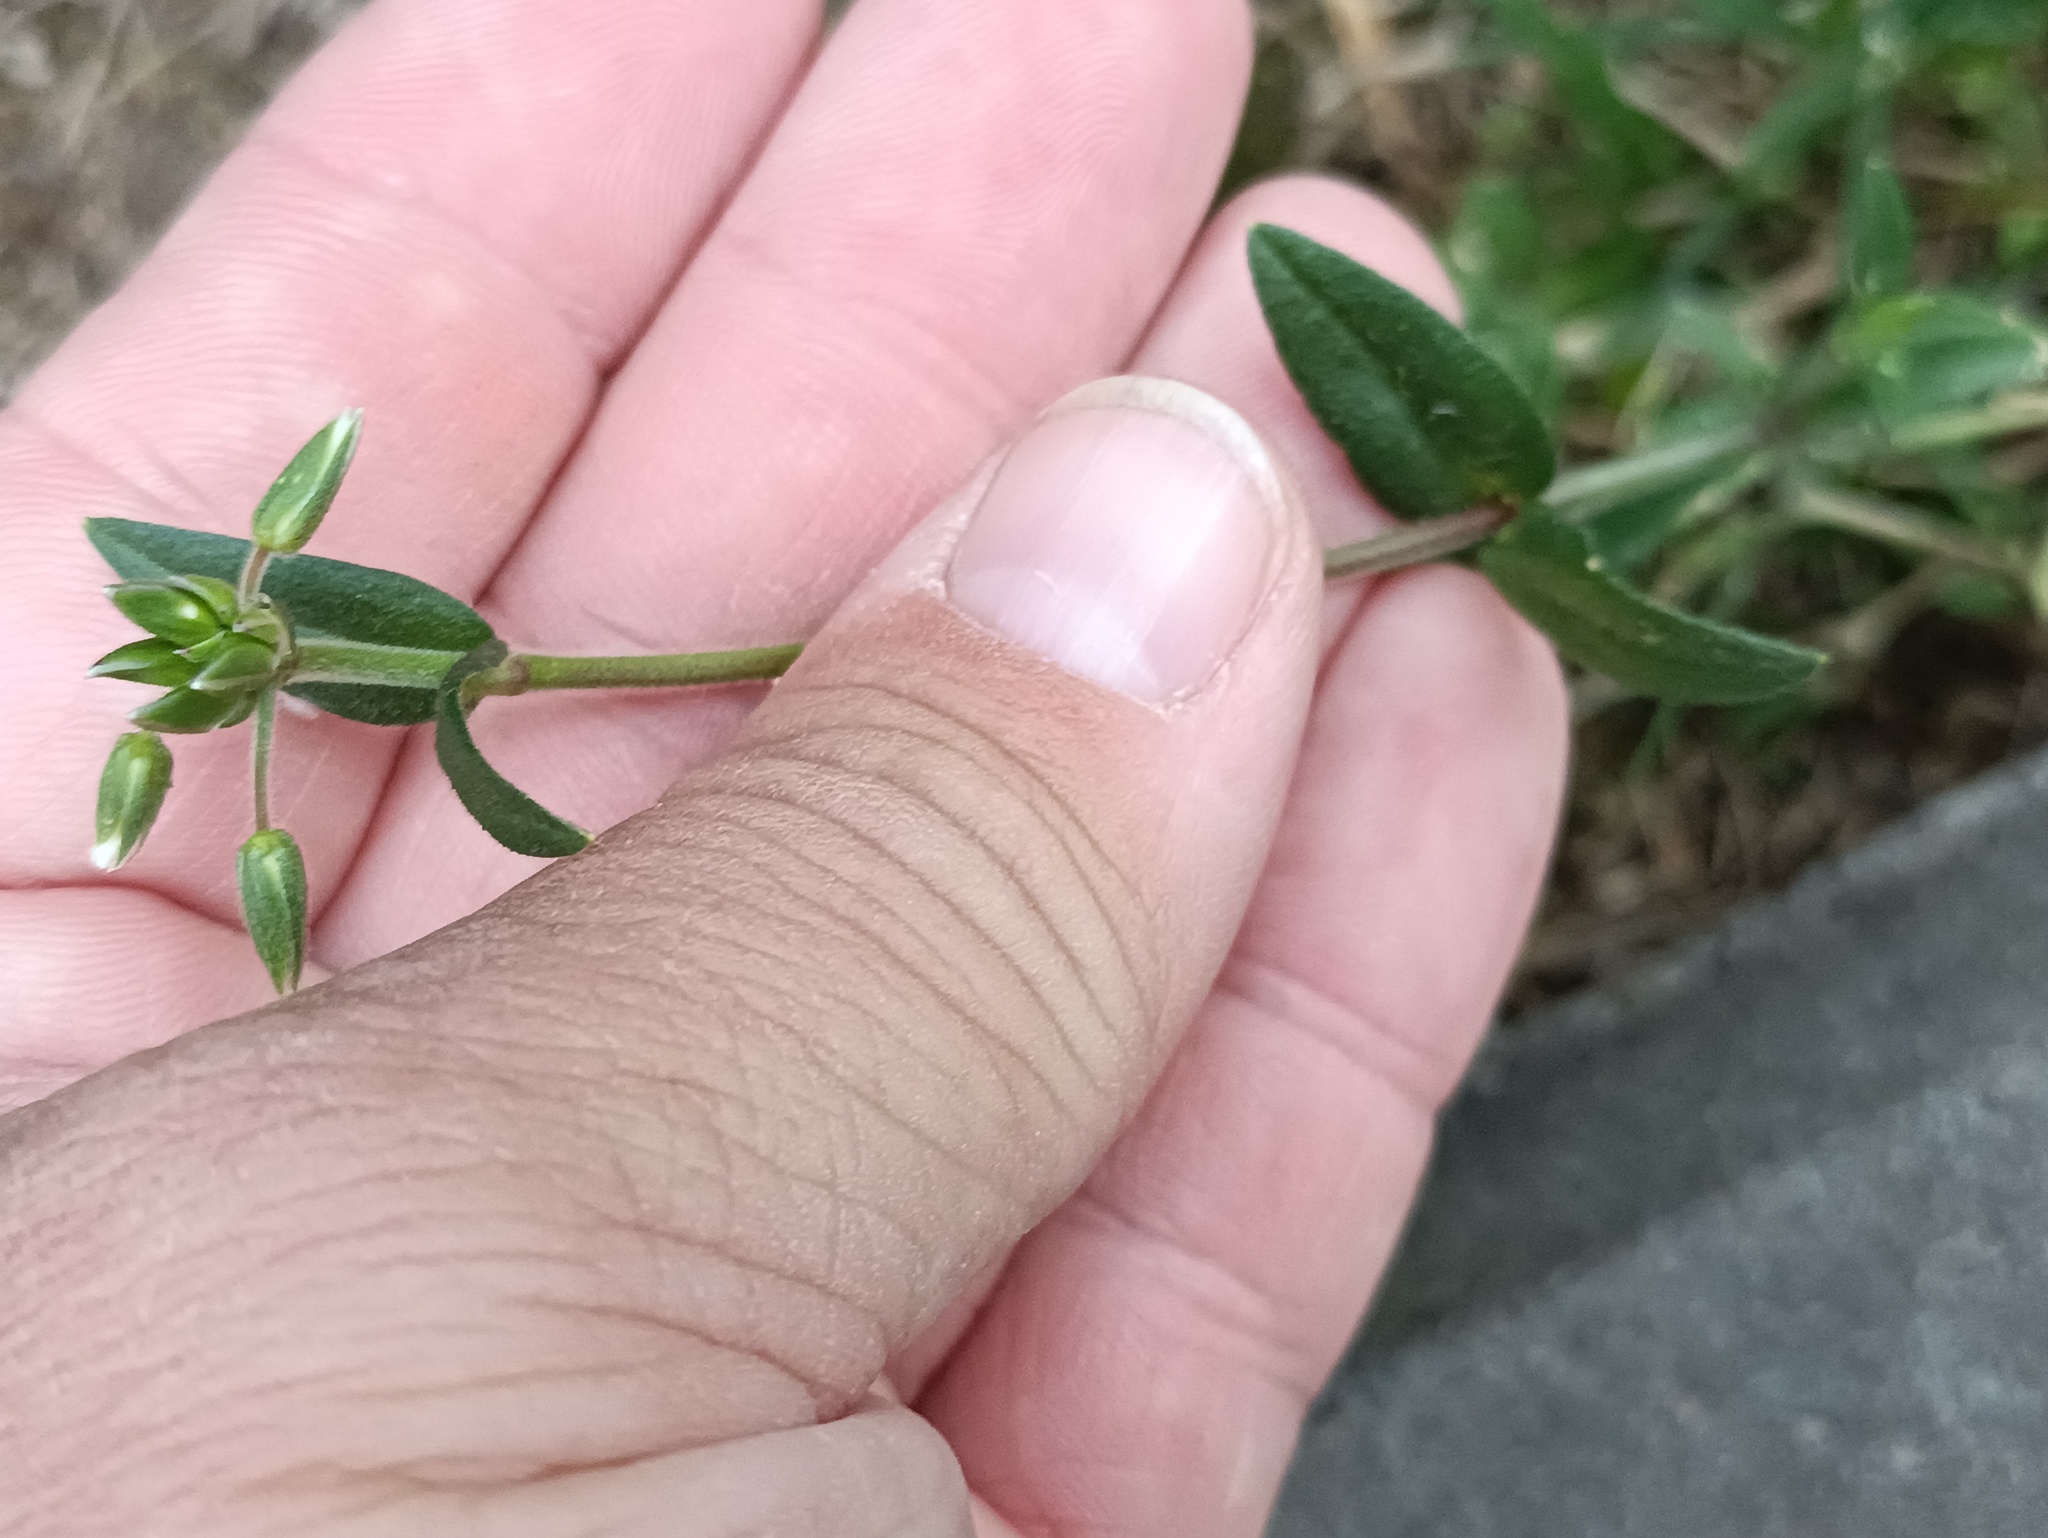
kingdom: Plantae
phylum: Tracheophyta
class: Magnoliopsida
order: Caryophyllales
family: Caryophyllaceae
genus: Cerastium
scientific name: Cerastium holosteoides
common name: Big chickweed
